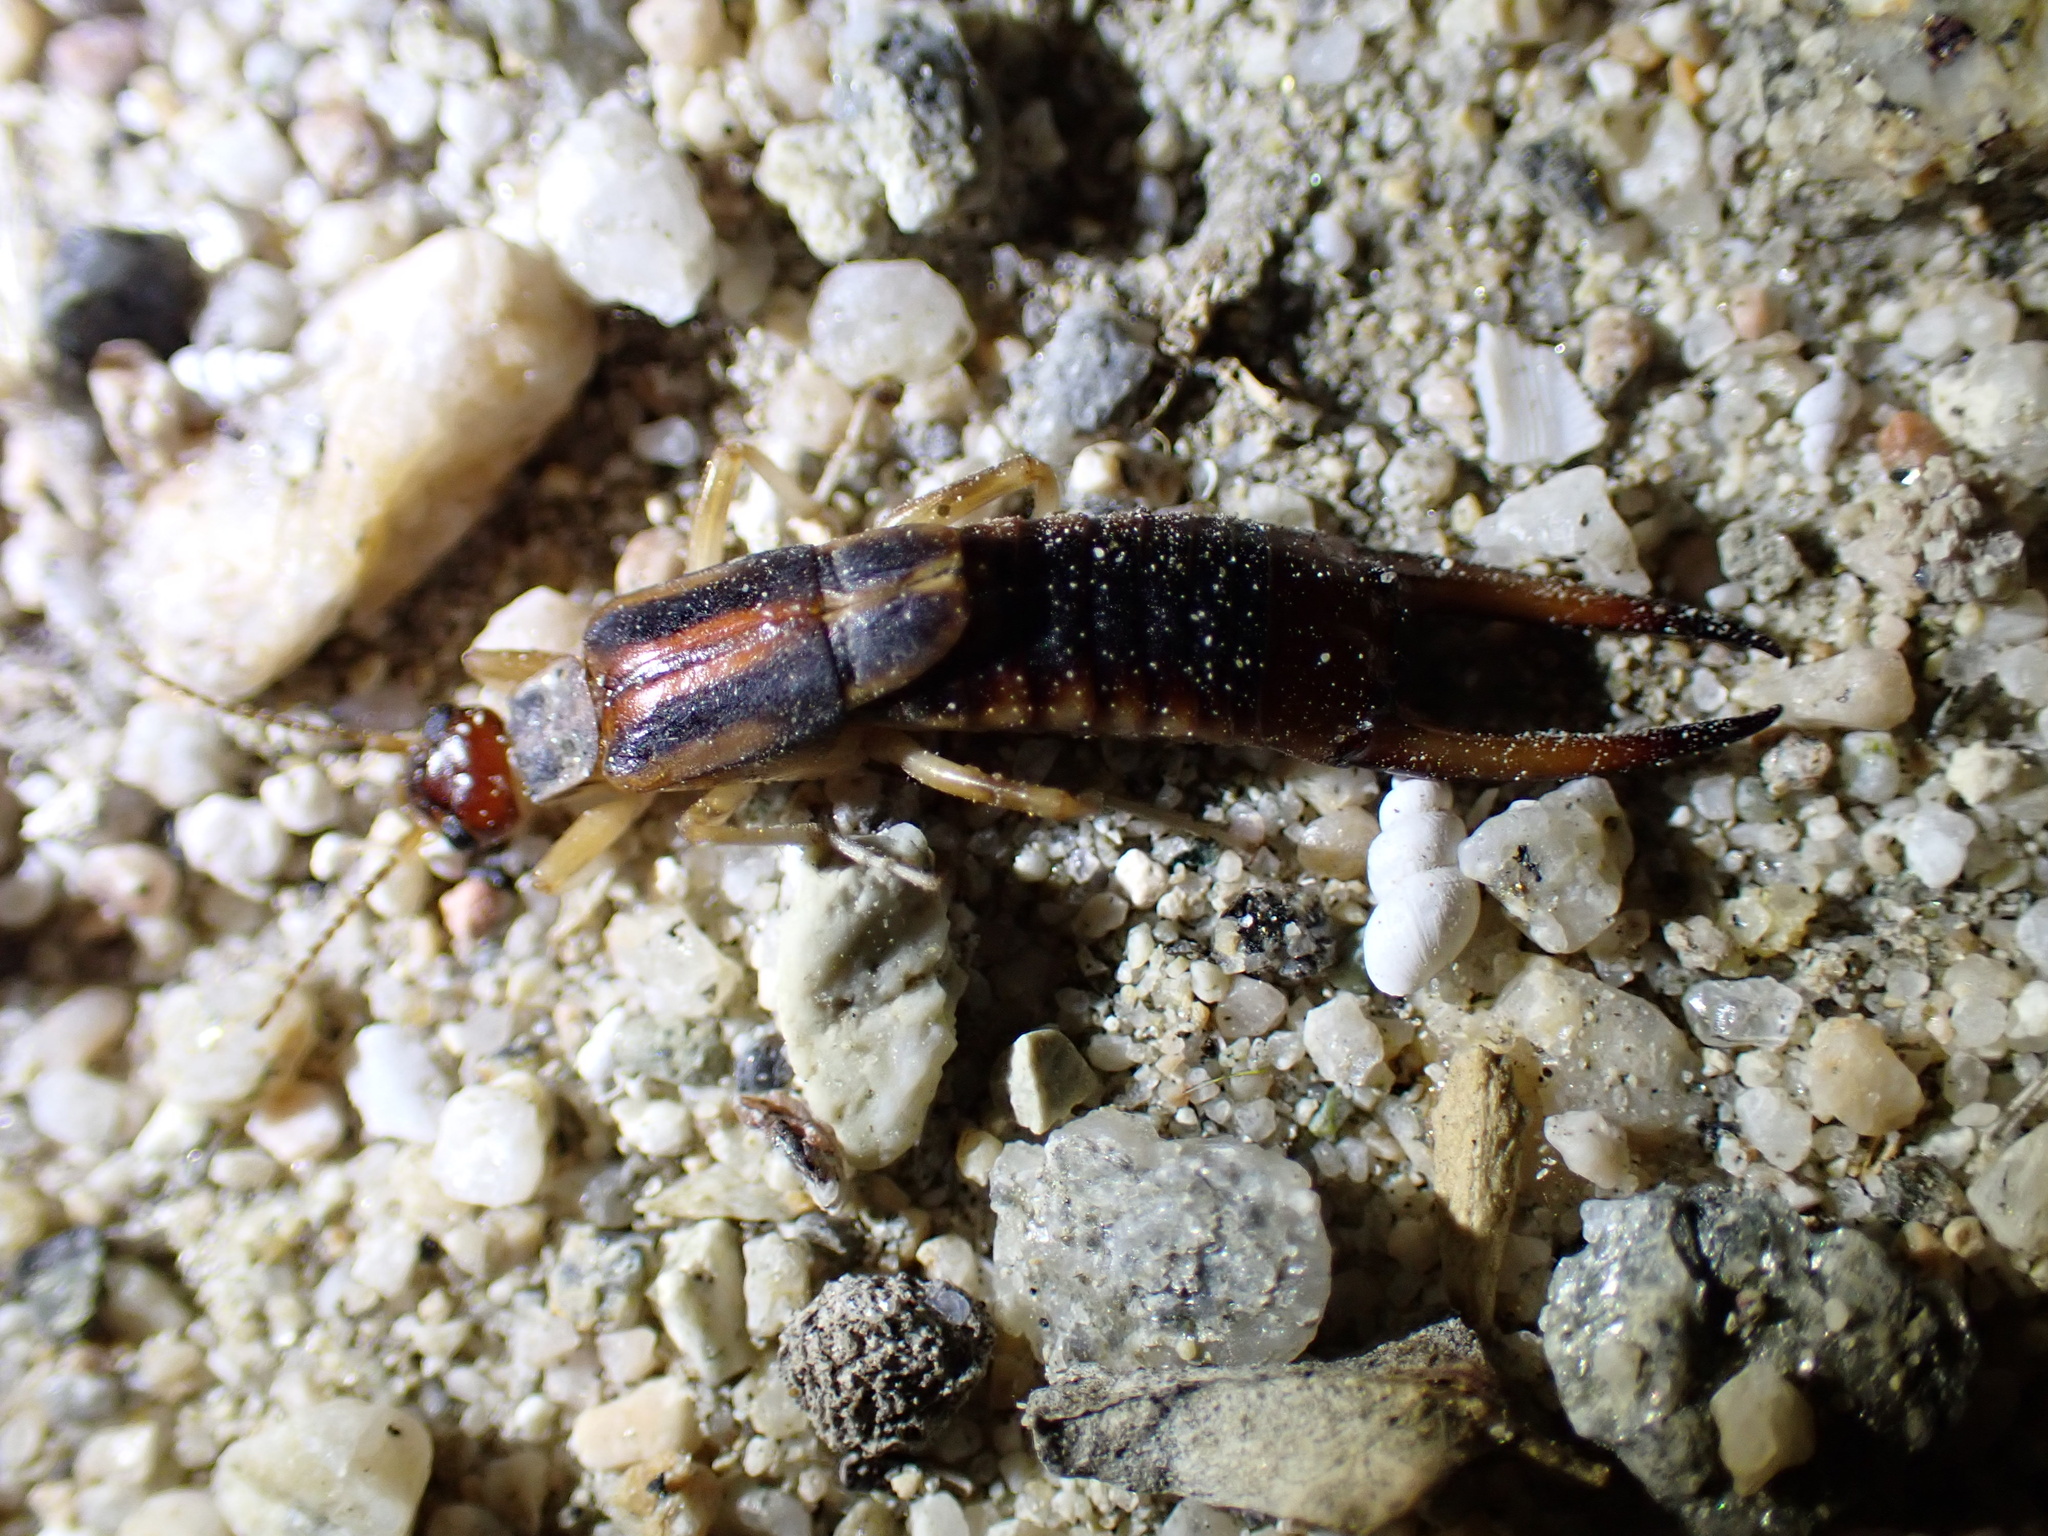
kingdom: Animalia
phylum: Arthropoda
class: Insecta
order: Dermaptera
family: Labiduridae
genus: Labidura
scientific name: Labidura riparia
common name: Striped earwig
